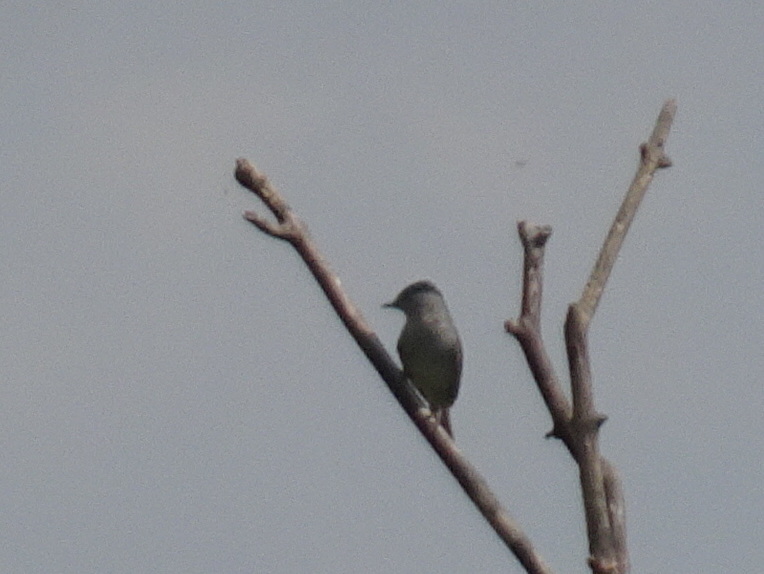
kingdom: Animalia
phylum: Chordata
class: Aves
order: Passeriformes
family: Sylviidae
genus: Sylvia
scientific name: Sylvia atricapilla
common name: Eurasian blackcap
